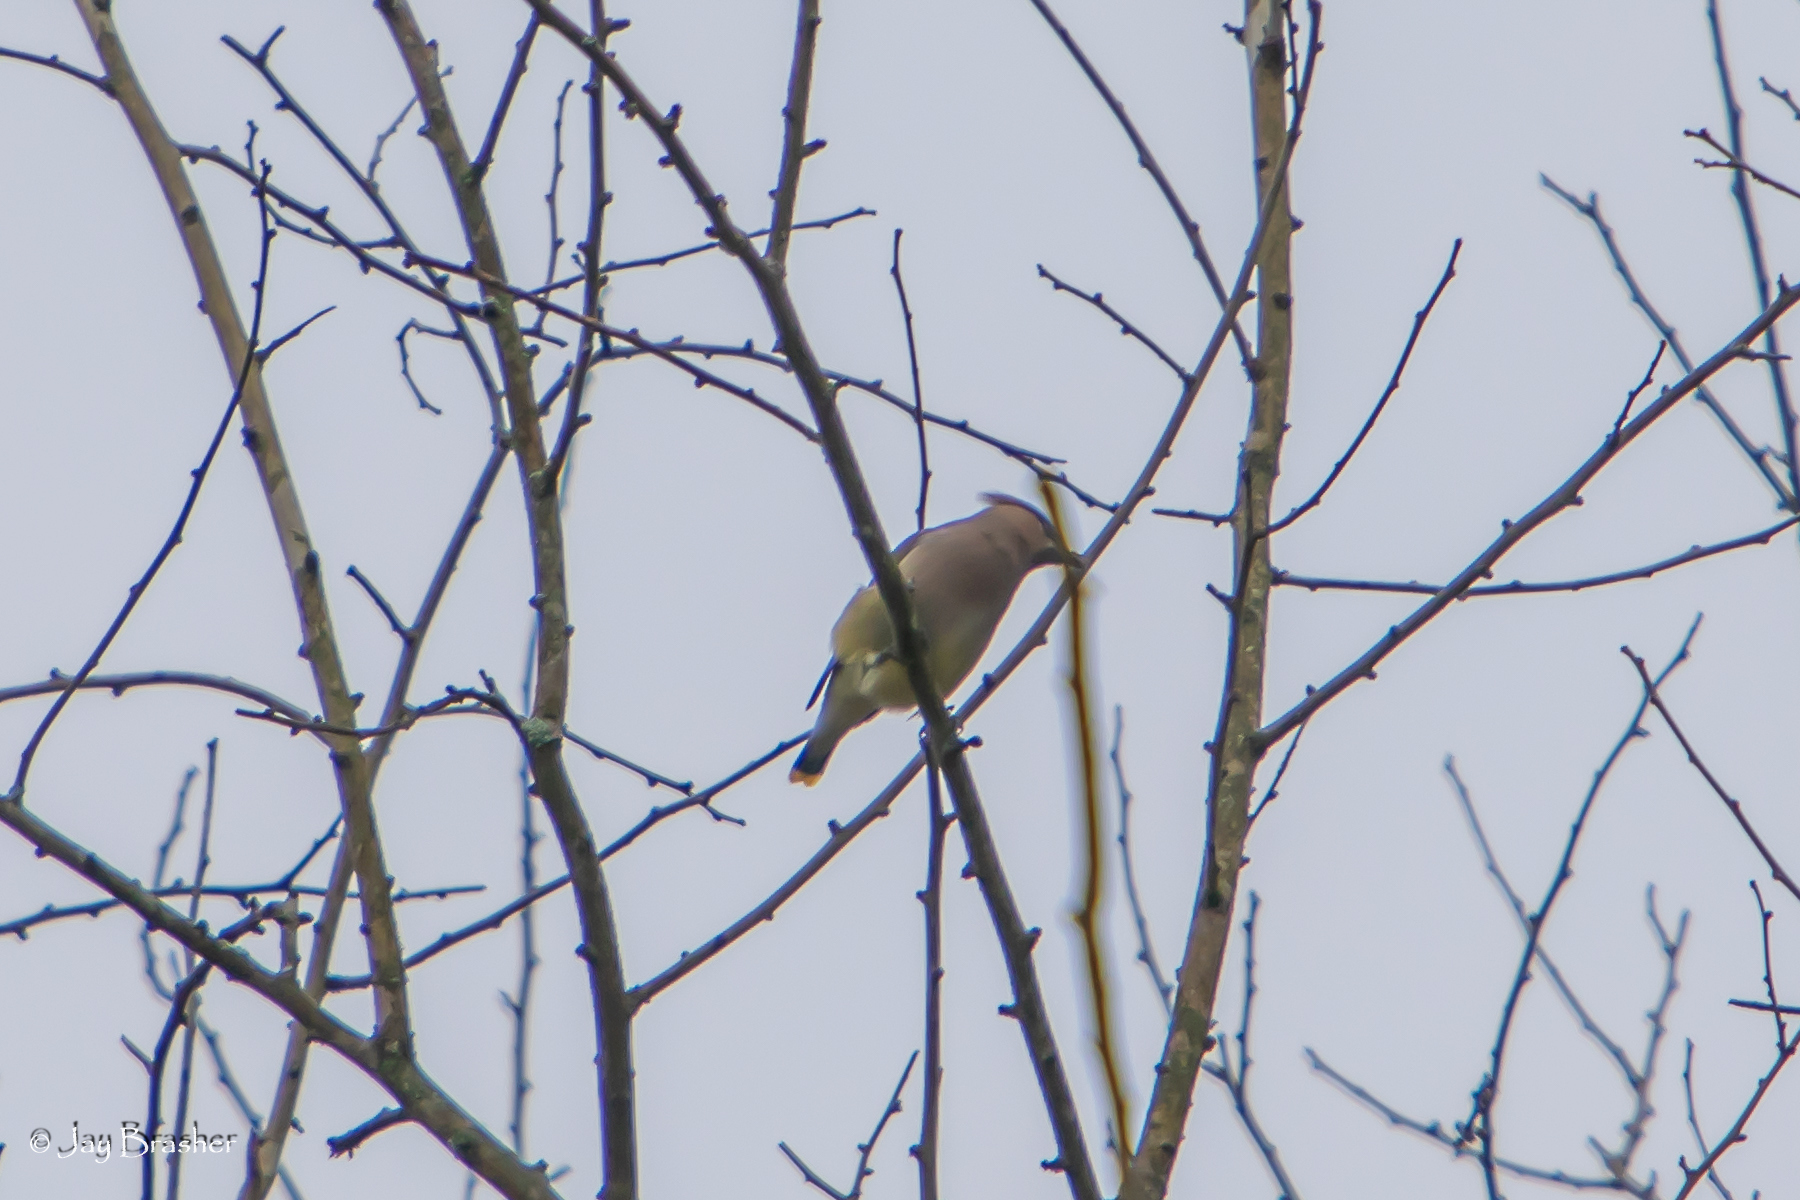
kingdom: Animalia
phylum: Chordata
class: Aves
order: Passeriformes
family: Bombycillidae
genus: Bombycilla
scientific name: Bombycilla cedrorum
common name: Cedar waxwing
